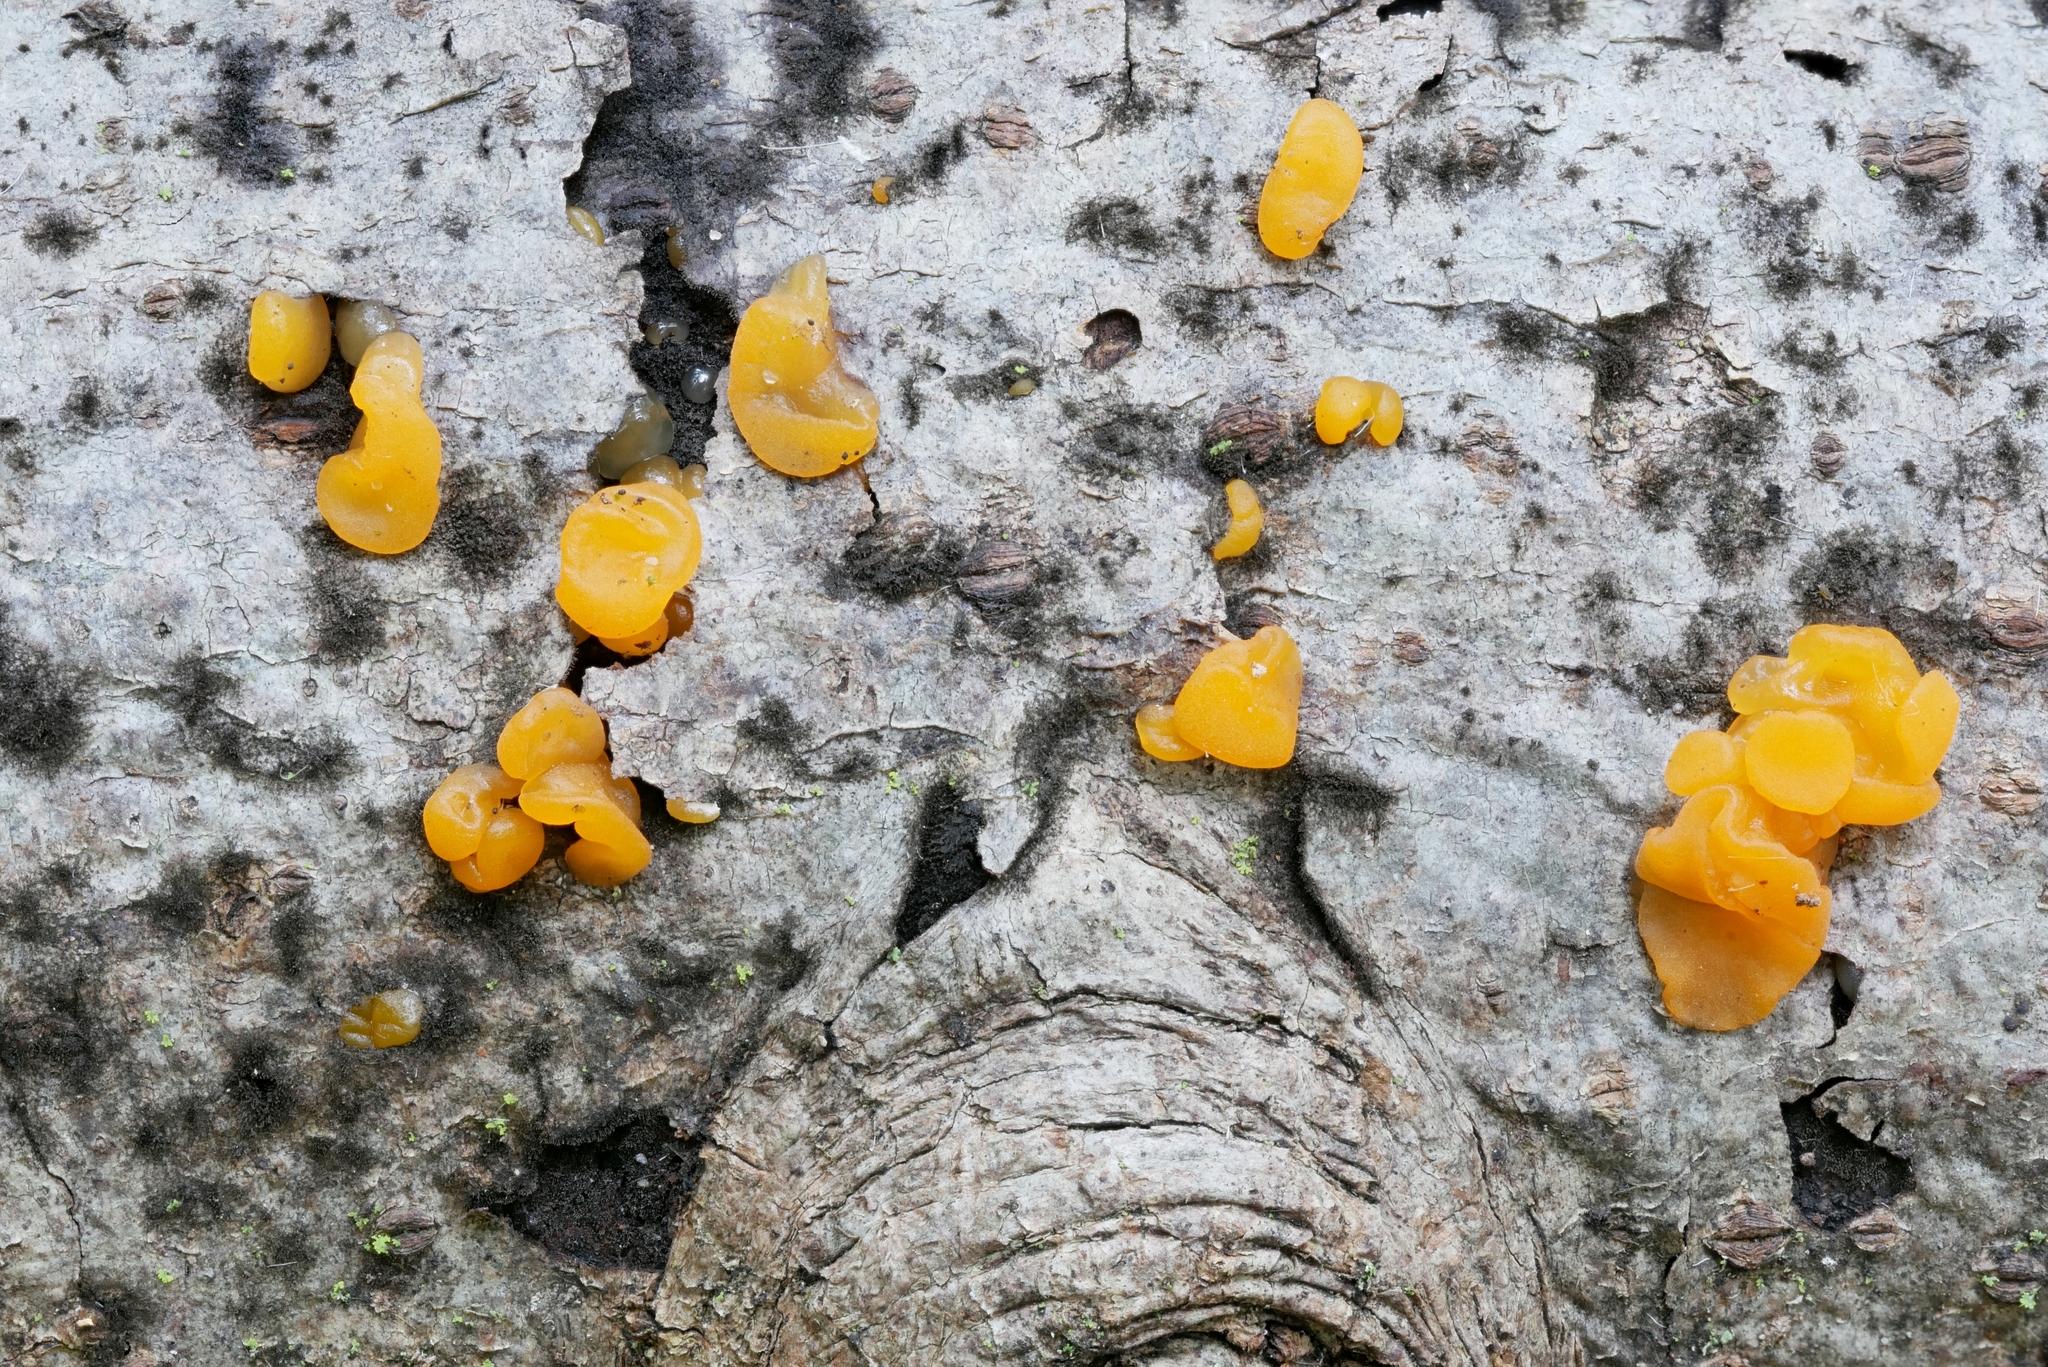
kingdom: Fungi
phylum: Basidiomycota
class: Dacrymycetes
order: Dacrymycetales
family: Dacrymycetaceae
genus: Dacrymyces
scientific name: Dacrymyces stillatus
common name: Common jelly spot
